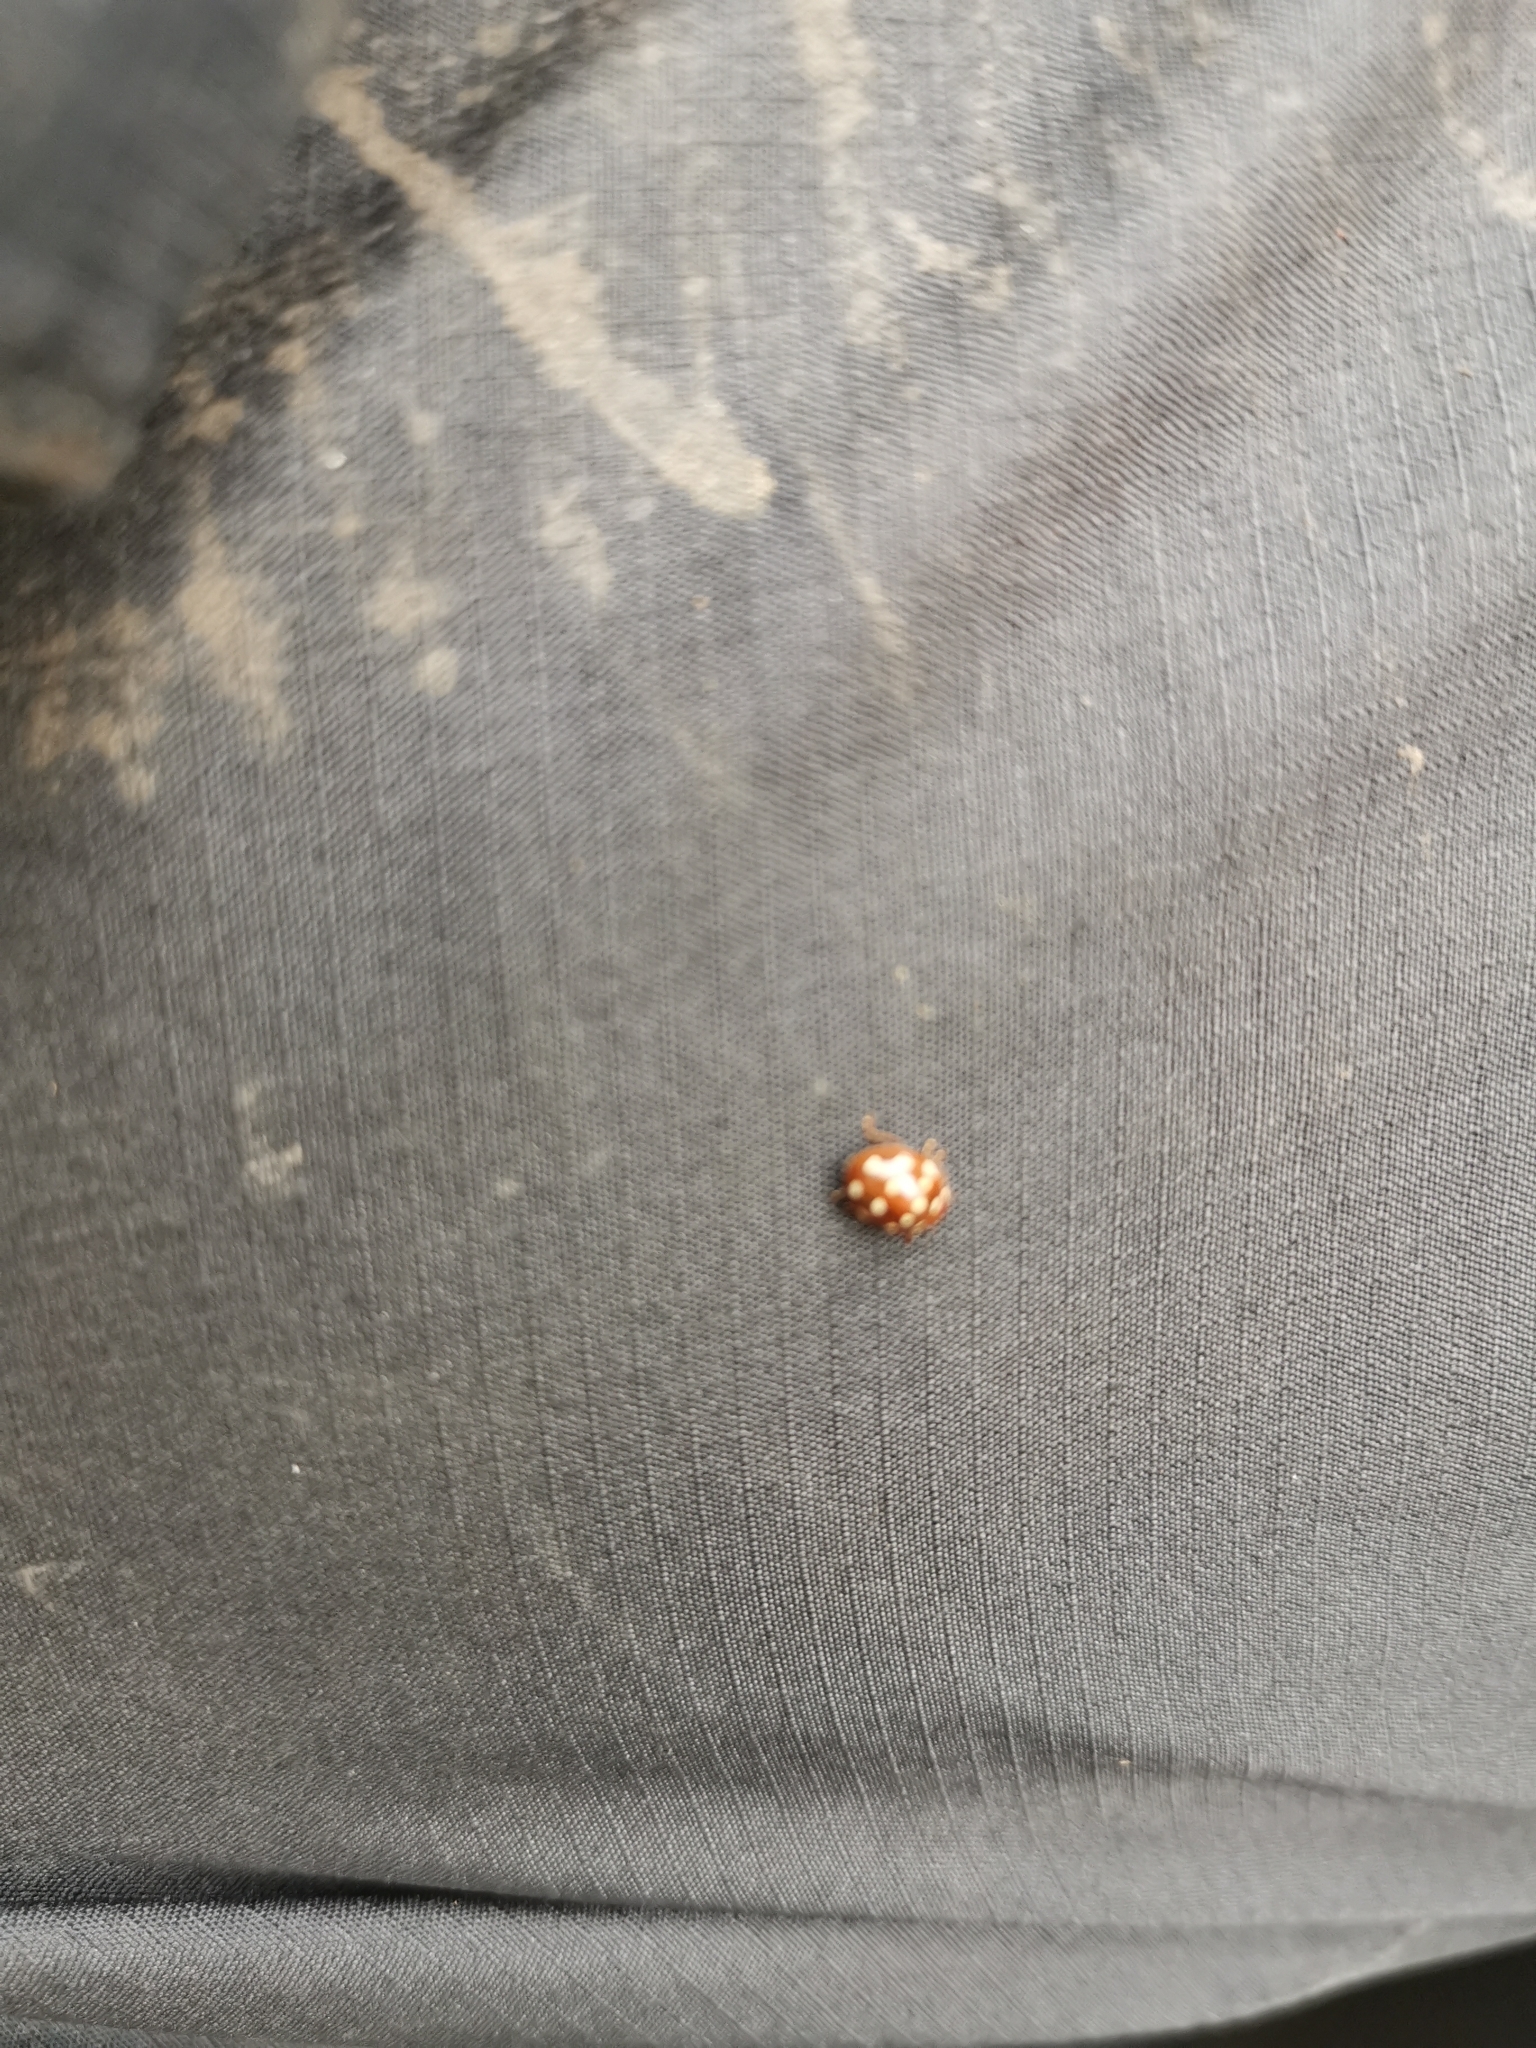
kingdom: Animalia
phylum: Arthropoda
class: Insecta
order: Coleoptera
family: Coccinellidae
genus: Calvia
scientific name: Calvia quatuordecimguttata
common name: Cream-spot ladybird
